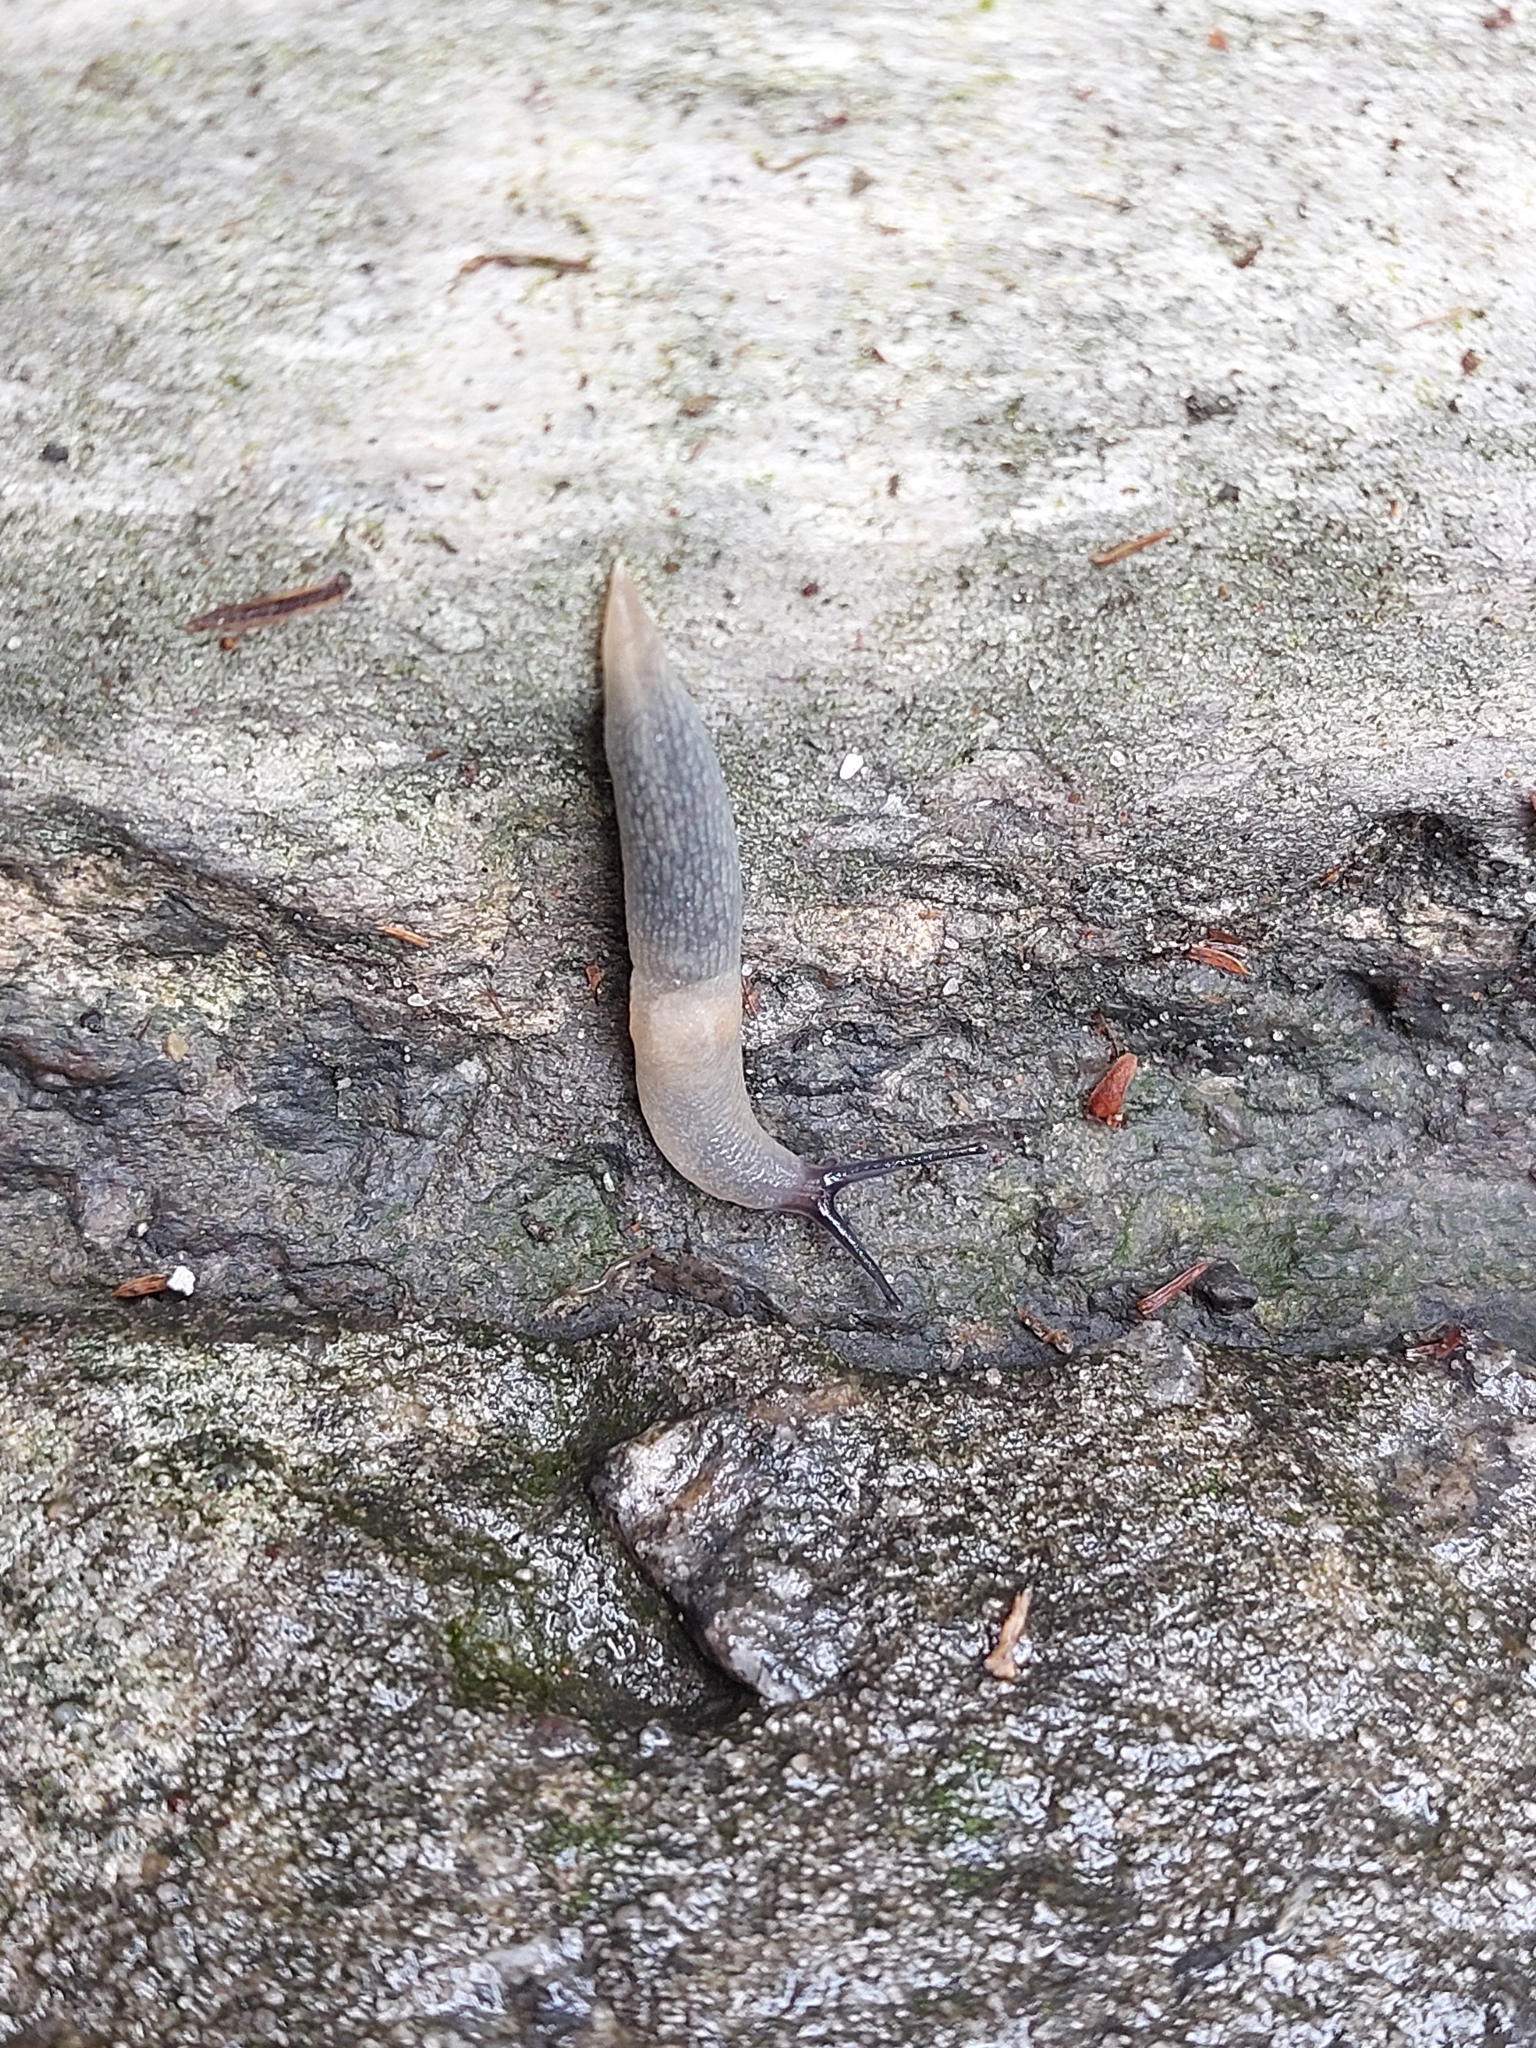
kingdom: Animalia
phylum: Mollusca
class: Gastropoda
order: Stylommatophora
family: Agriolimacidae
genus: Krynickillus
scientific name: Krynickillus melanocephalus
